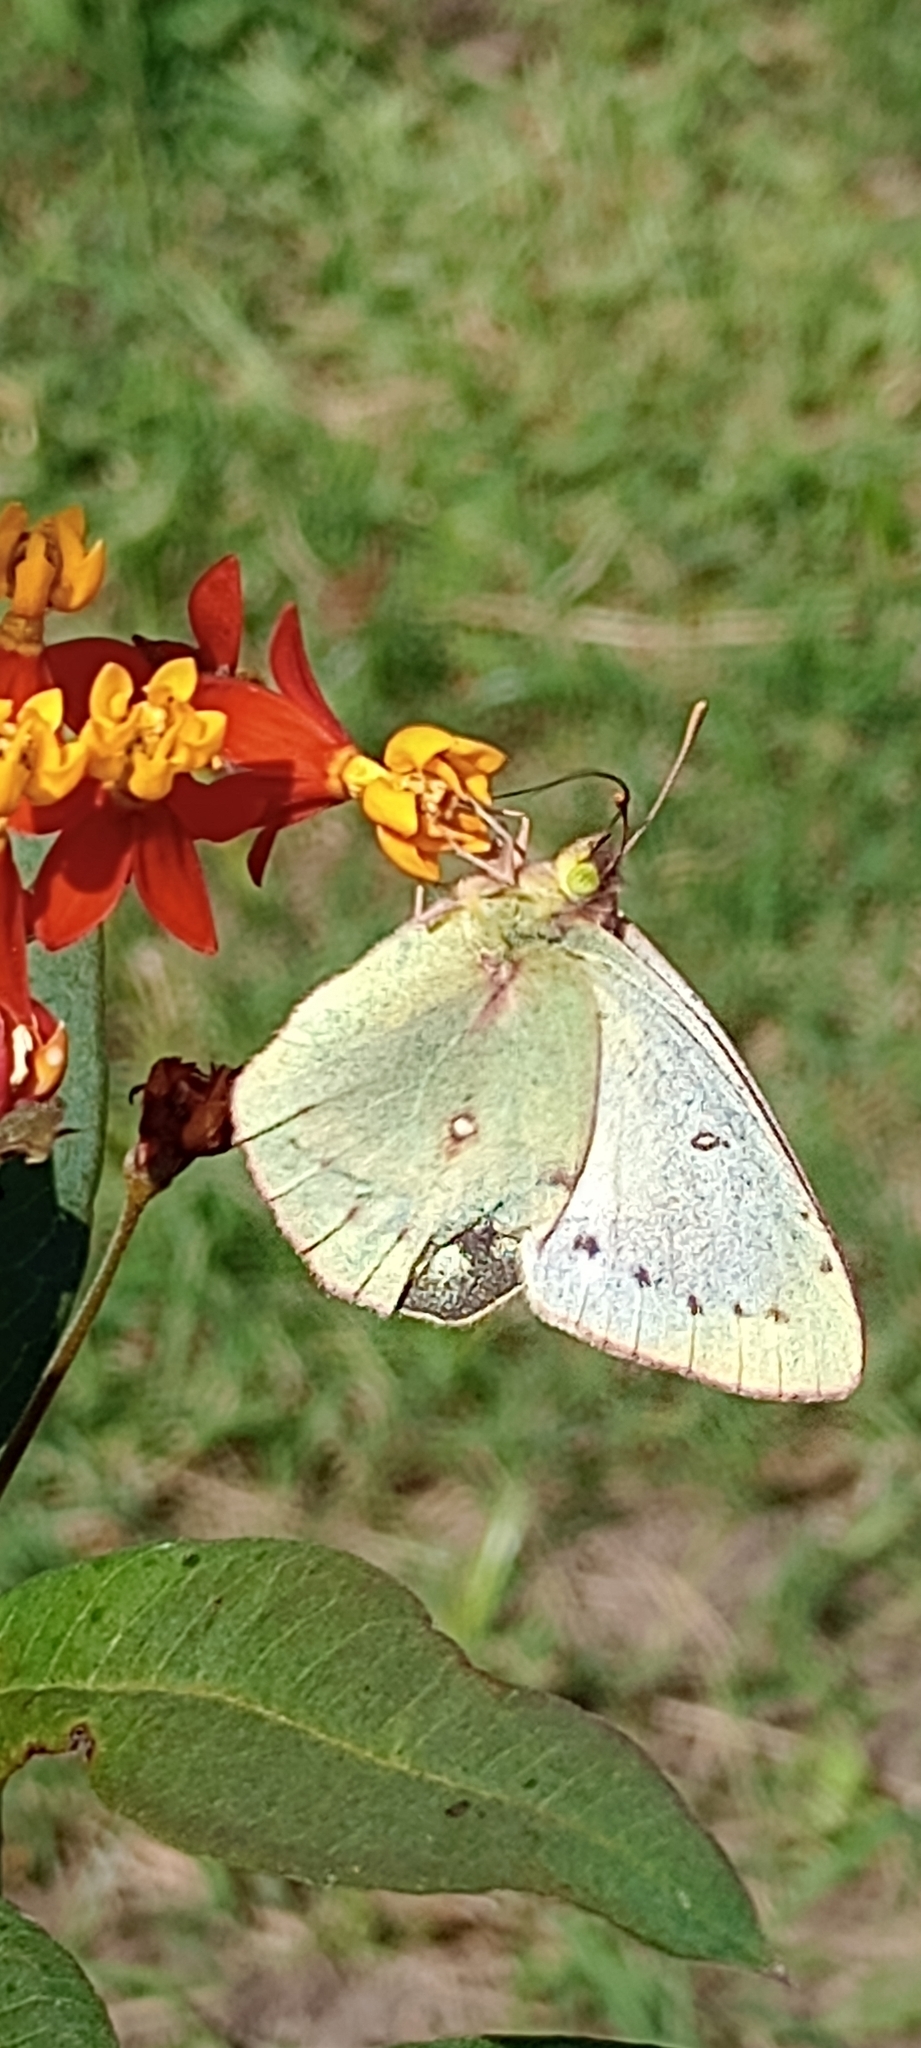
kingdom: Animalia
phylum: Arthropoda
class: Insecta
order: Lepidoptera
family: Pieridae
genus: Colias
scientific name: Colias lesbia
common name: Lesbia clouded yellow
